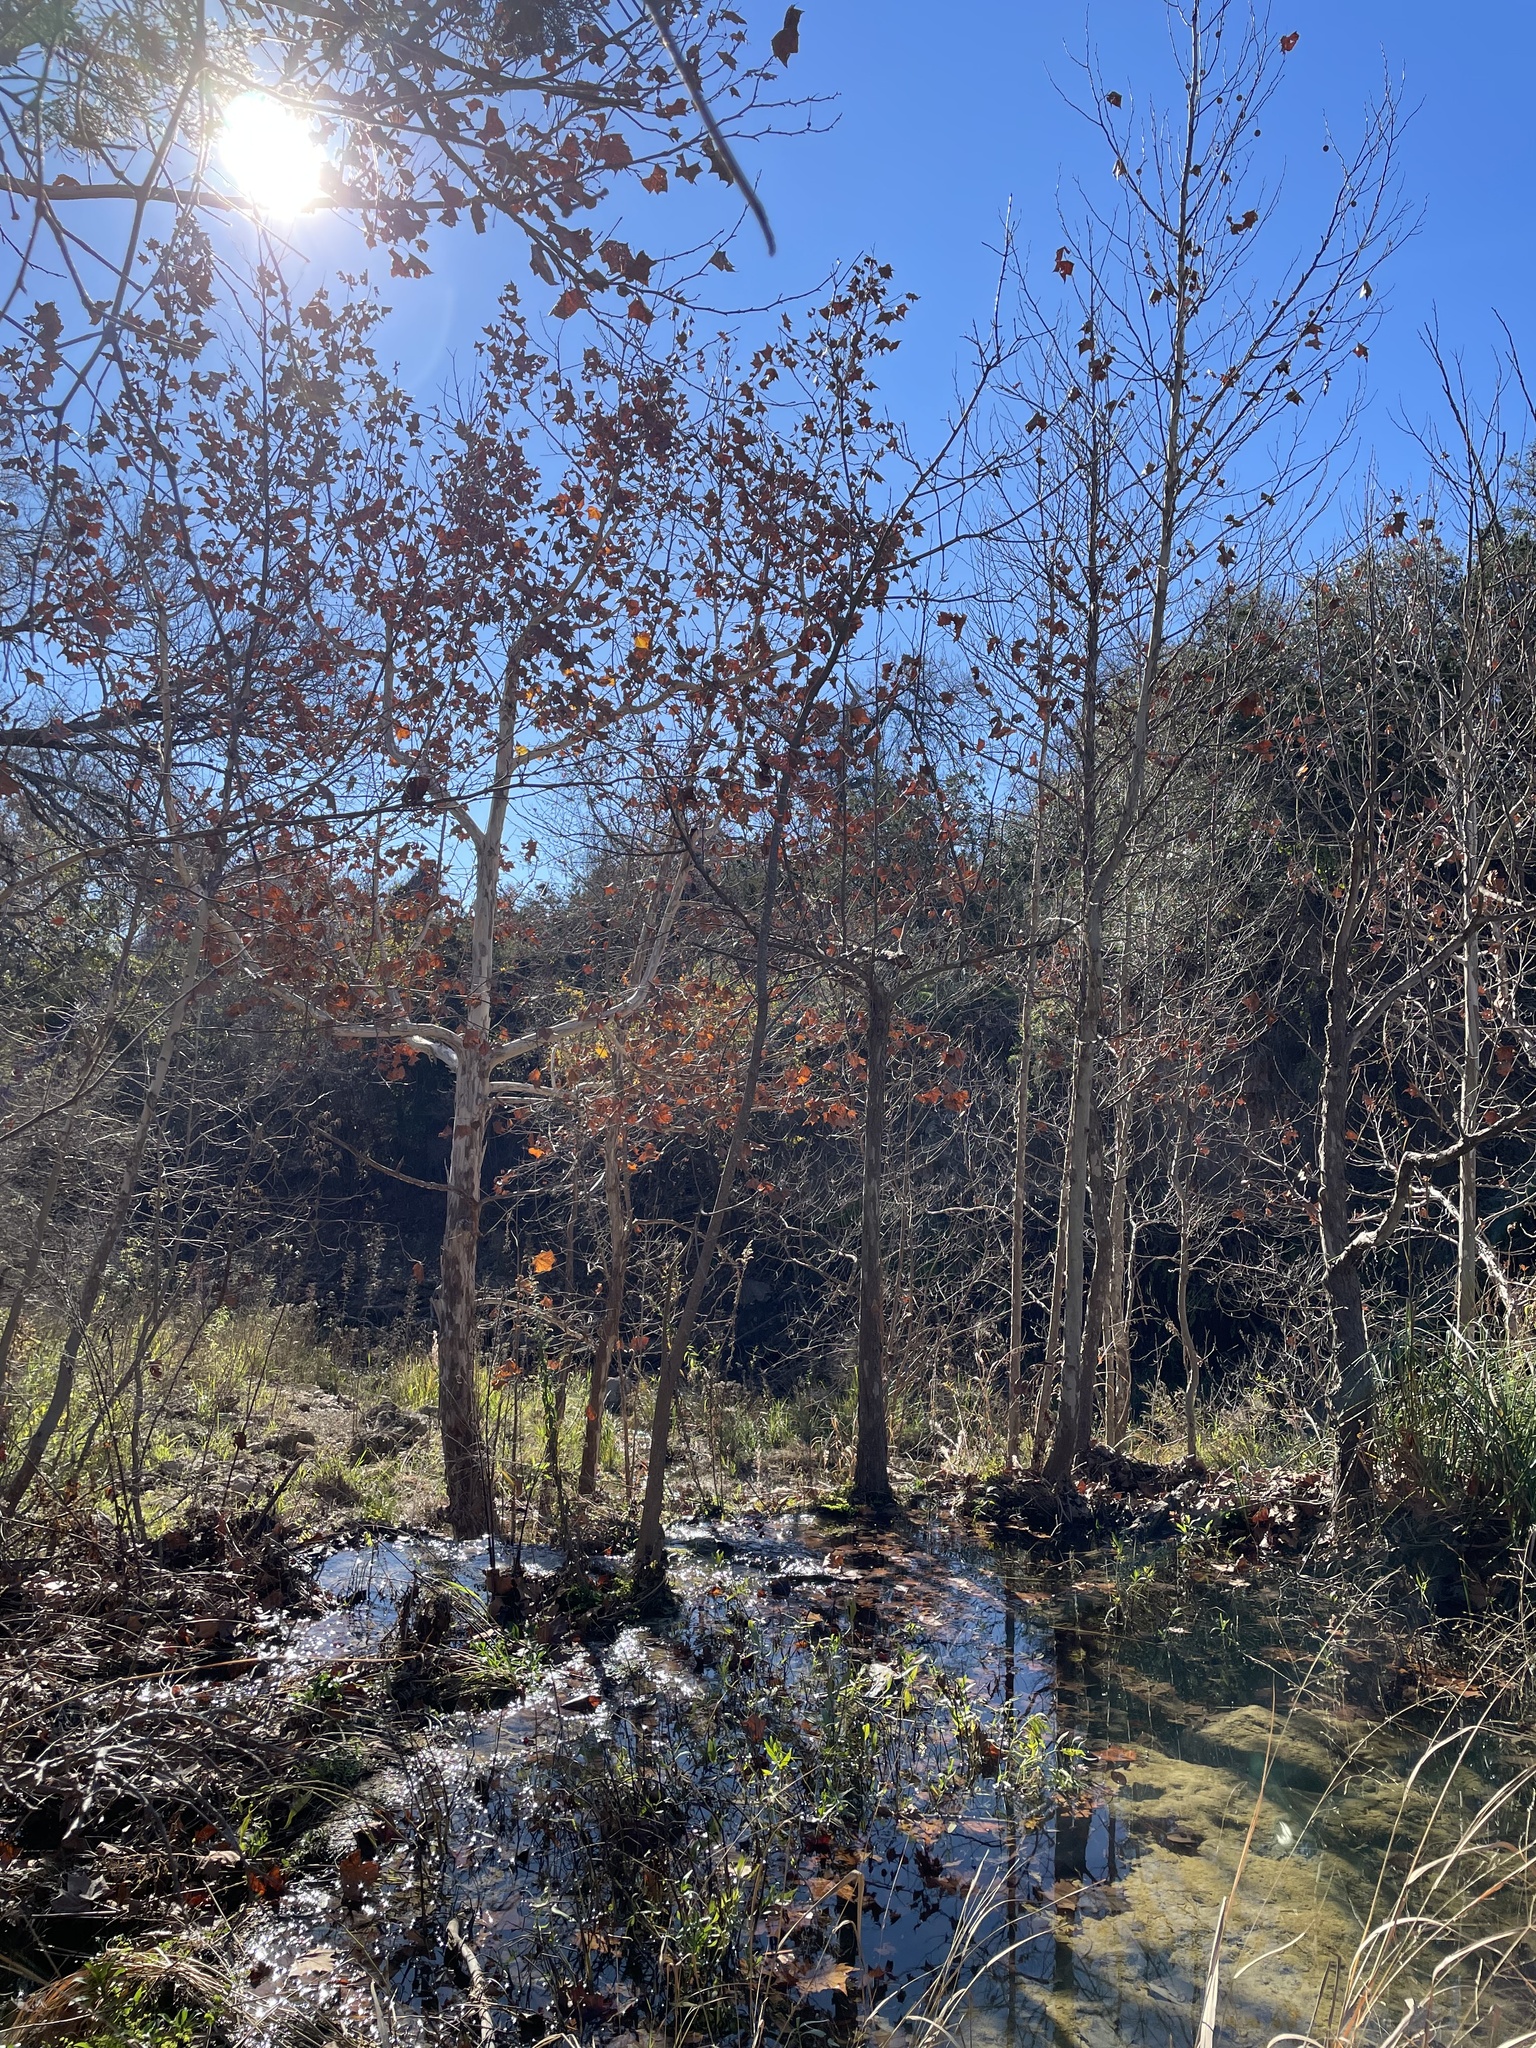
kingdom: Plantae
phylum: Tracheophyta
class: Magnoliopsida
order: Proteales
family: Platanaceae
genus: Platanus
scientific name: Platanus occidentalis
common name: American sycamore
